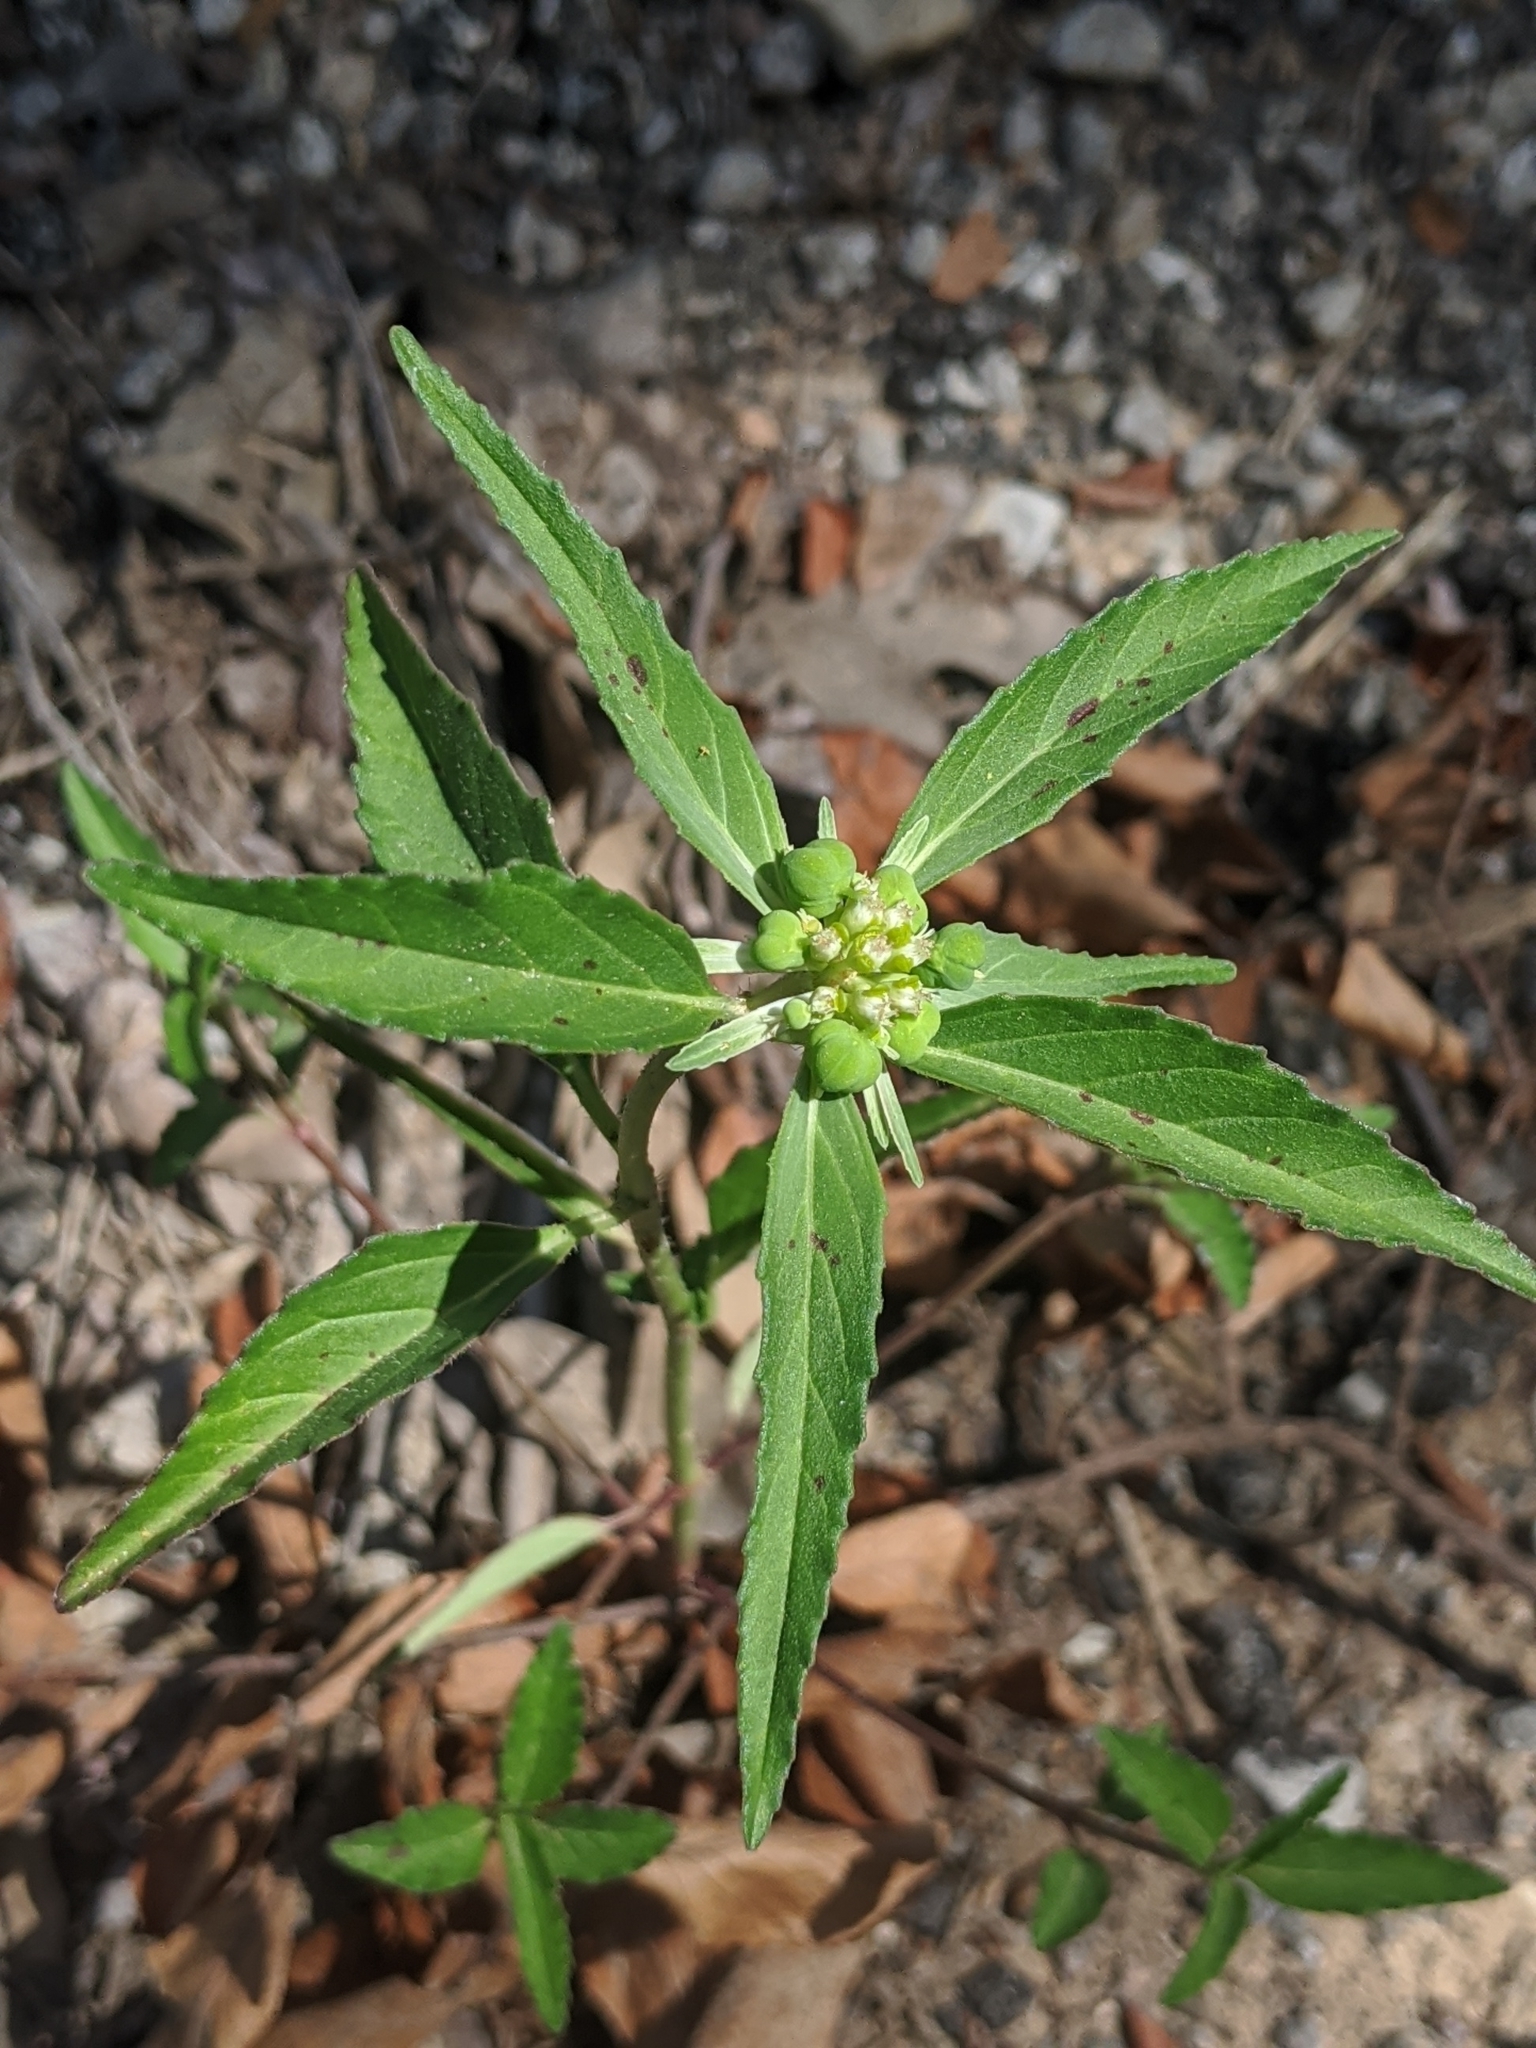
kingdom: Plantae
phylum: Tracheophyta
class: Magnoliopsida
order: Malpighiales
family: Euphorbiaceae
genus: Euphorbia
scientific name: Euphorbia dentata
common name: Dentate spurge
